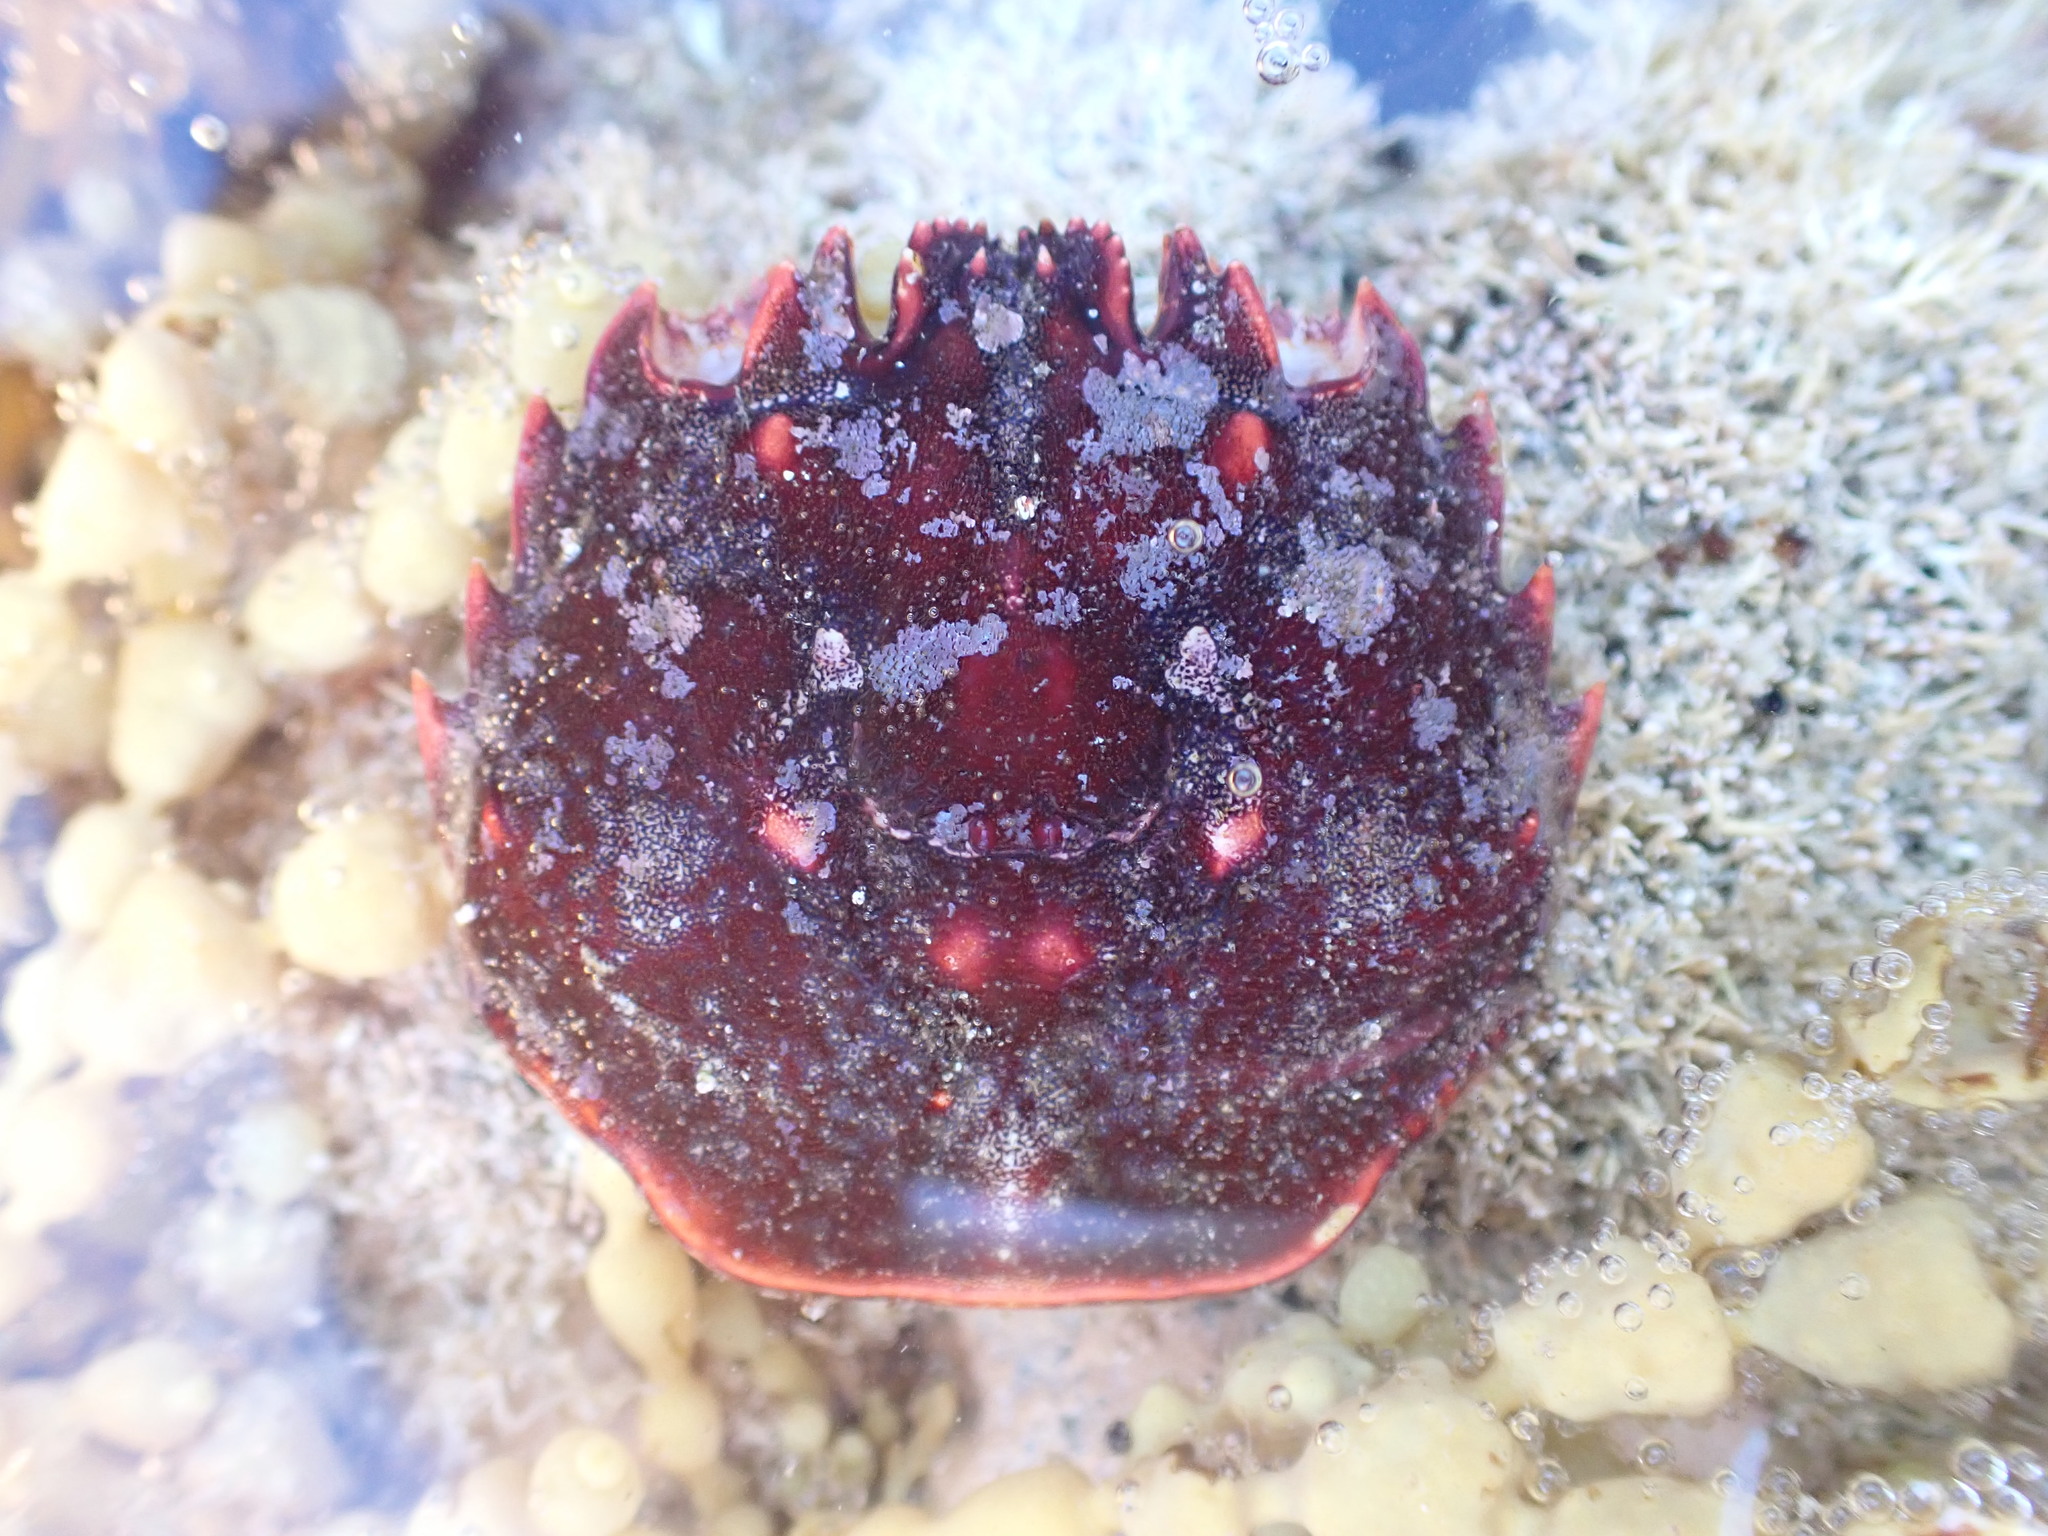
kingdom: Animalia
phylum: Arthropoda
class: Malacostraca
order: Decapoda
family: Plagusiidae
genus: Guinusia
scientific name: Guinusia chabrus
